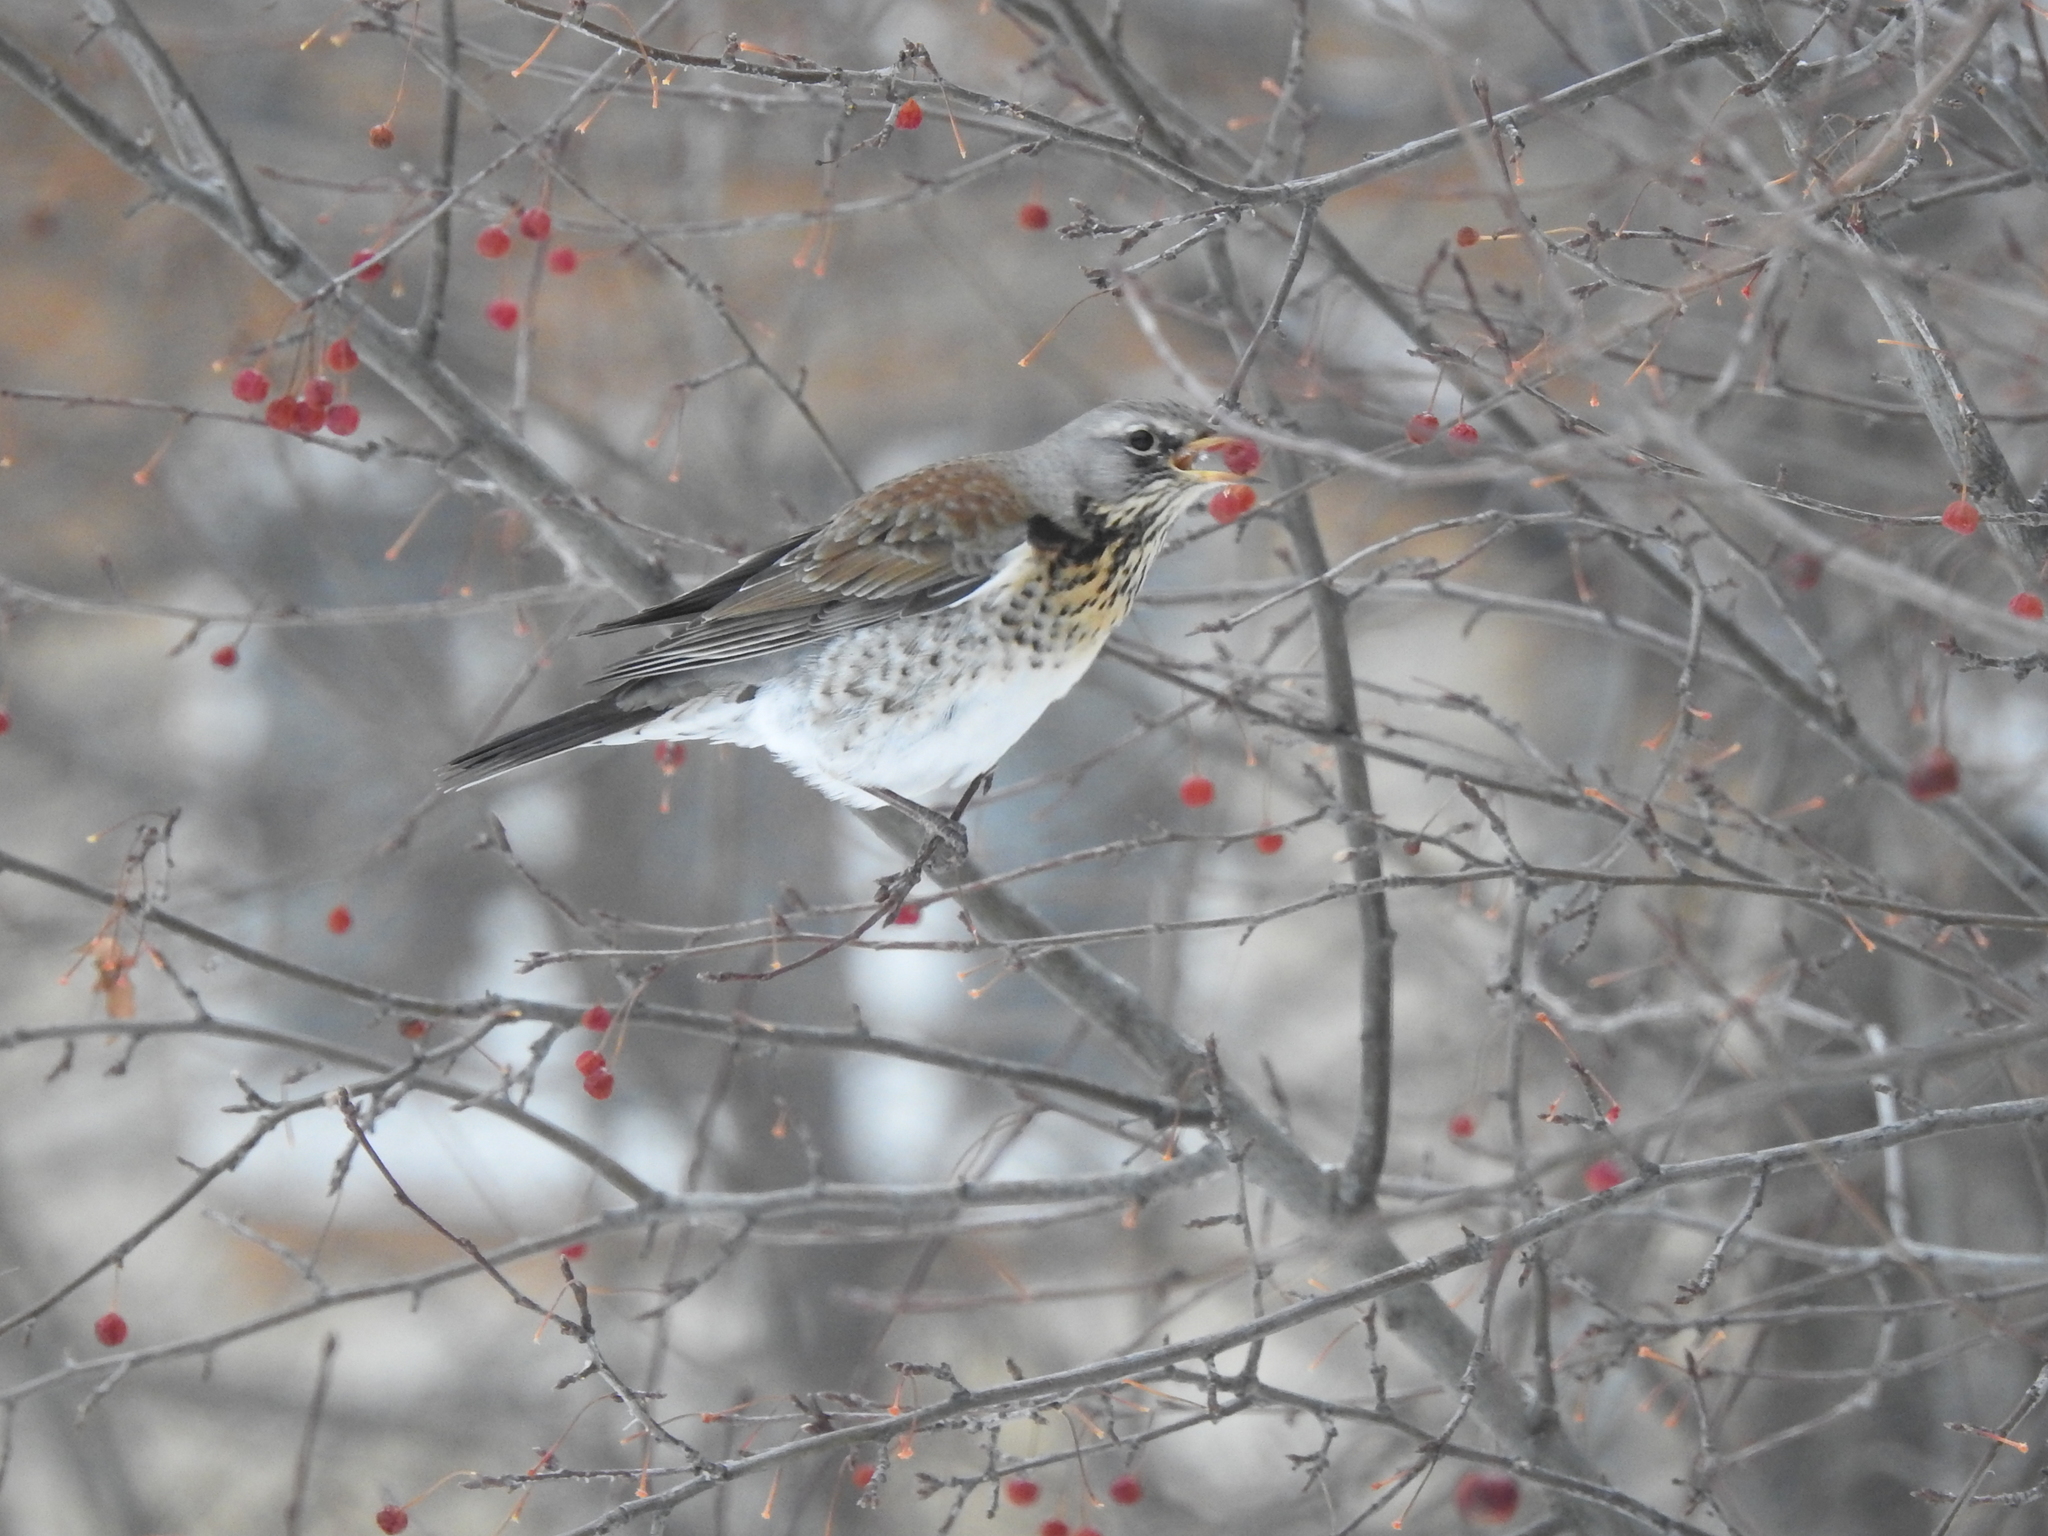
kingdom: Animalia
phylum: Chordata
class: Aves
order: Passeriformes
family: Turdidae
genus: Turdus
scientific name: Turdus pilaris
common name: Fieldfare
